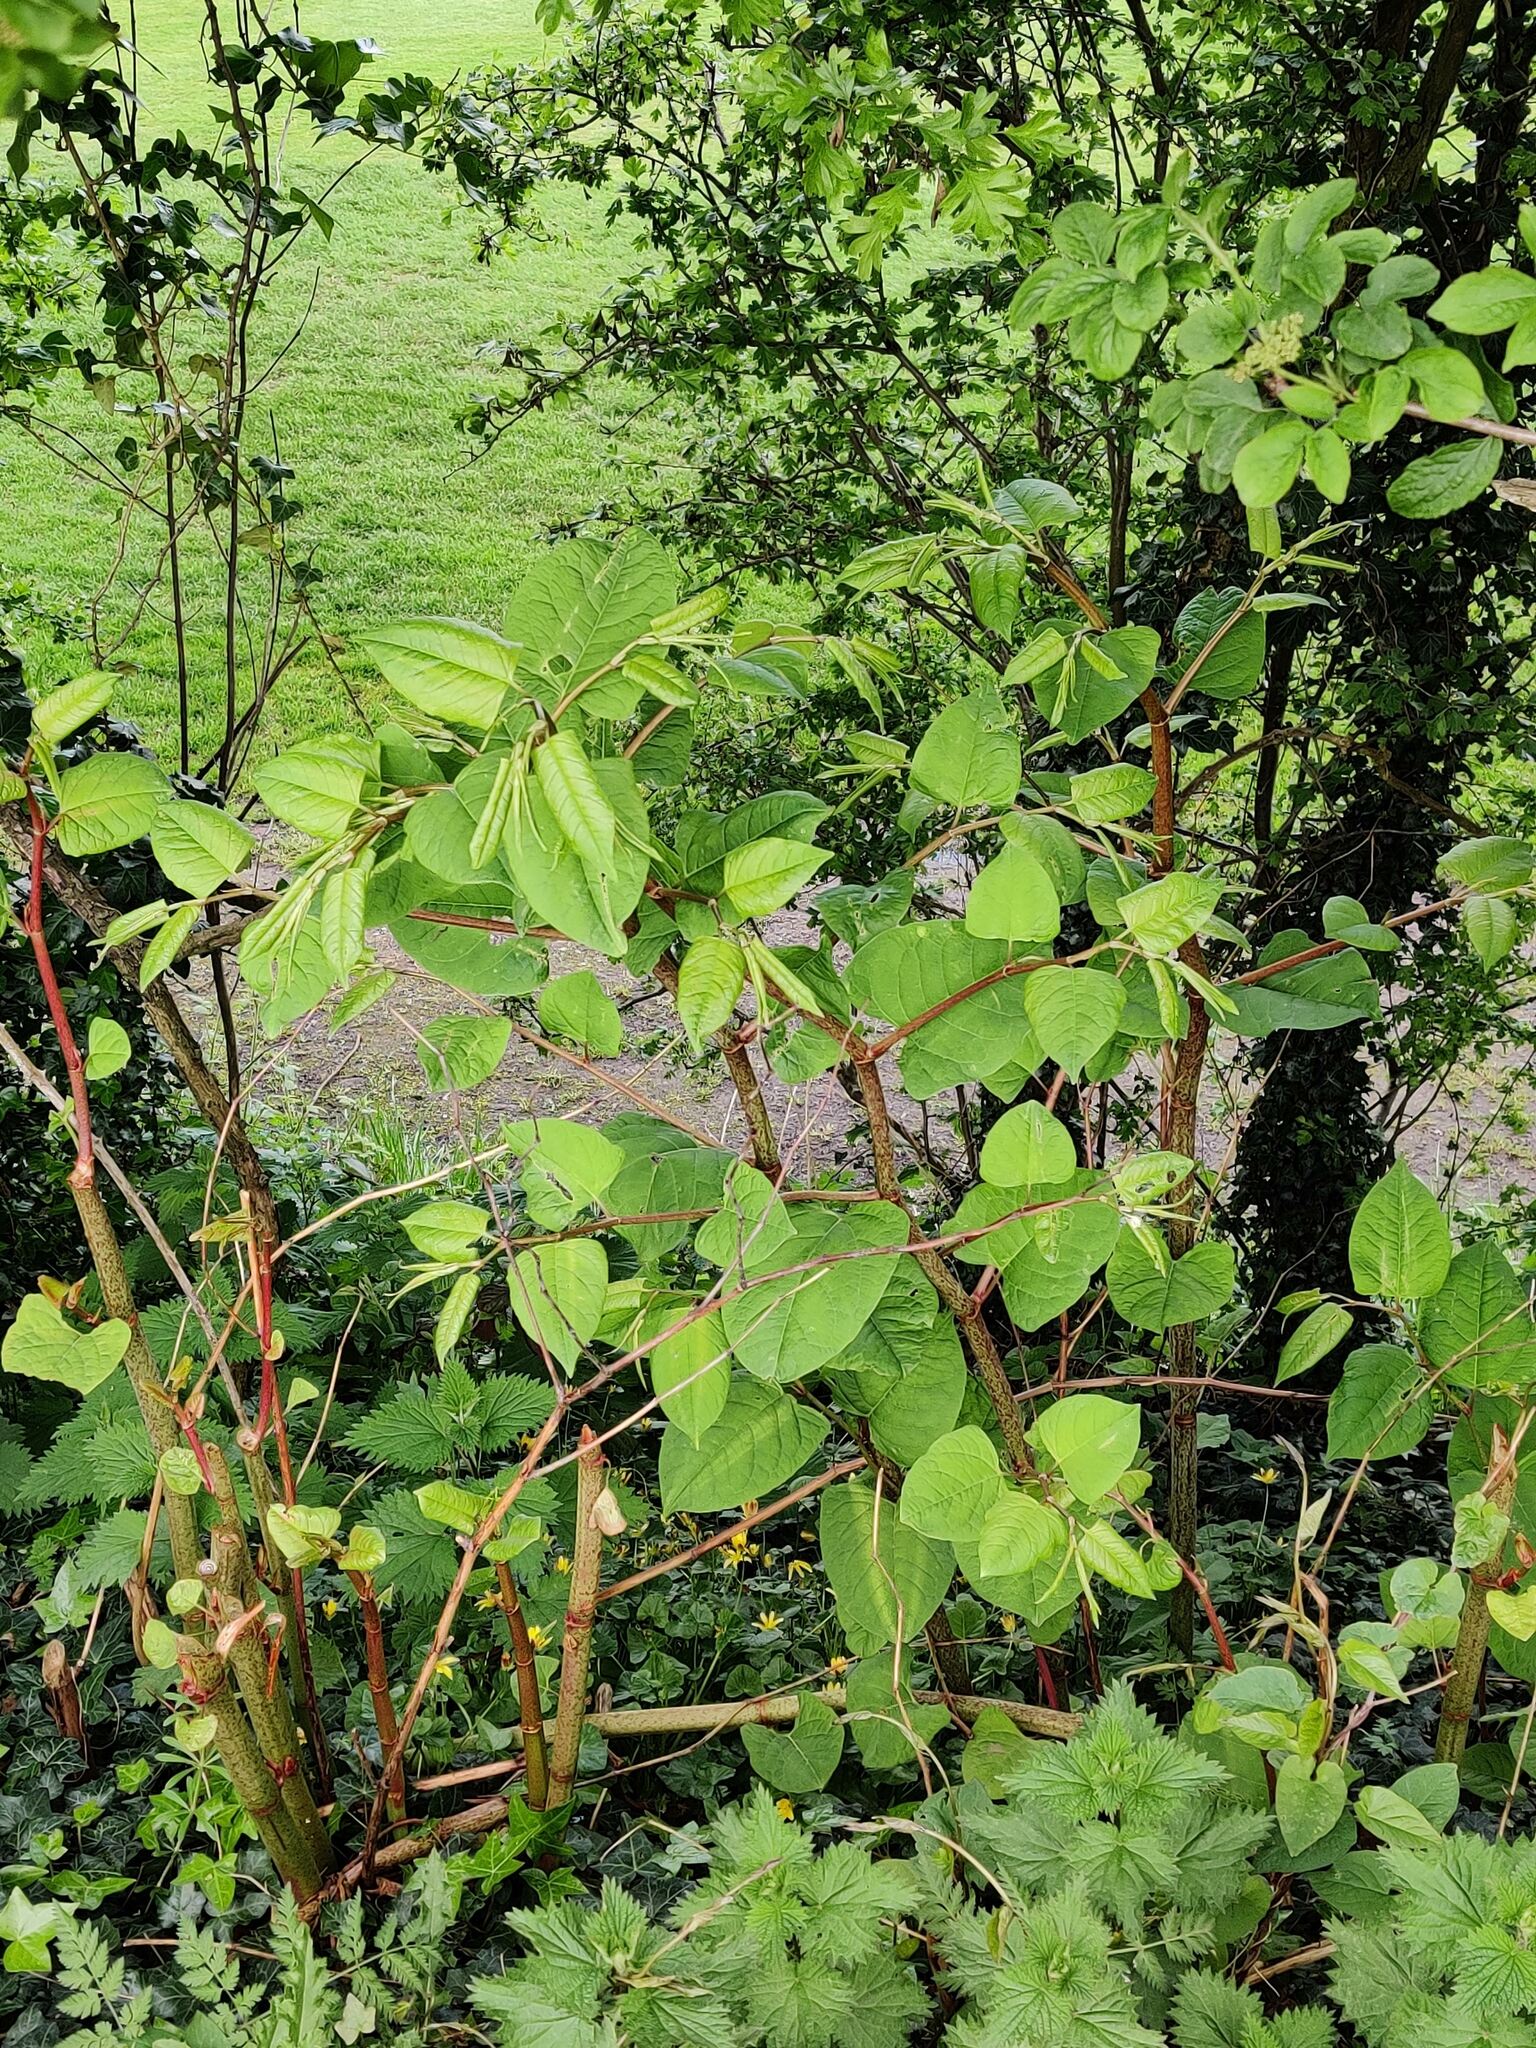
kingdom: Plantae
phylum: Tracheophyta
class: Magnoliopsida
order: Caryophyllales
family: Polygonaceae
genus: Reynoutria
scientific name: Reynoutria japonica
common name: Japanese knotweed
